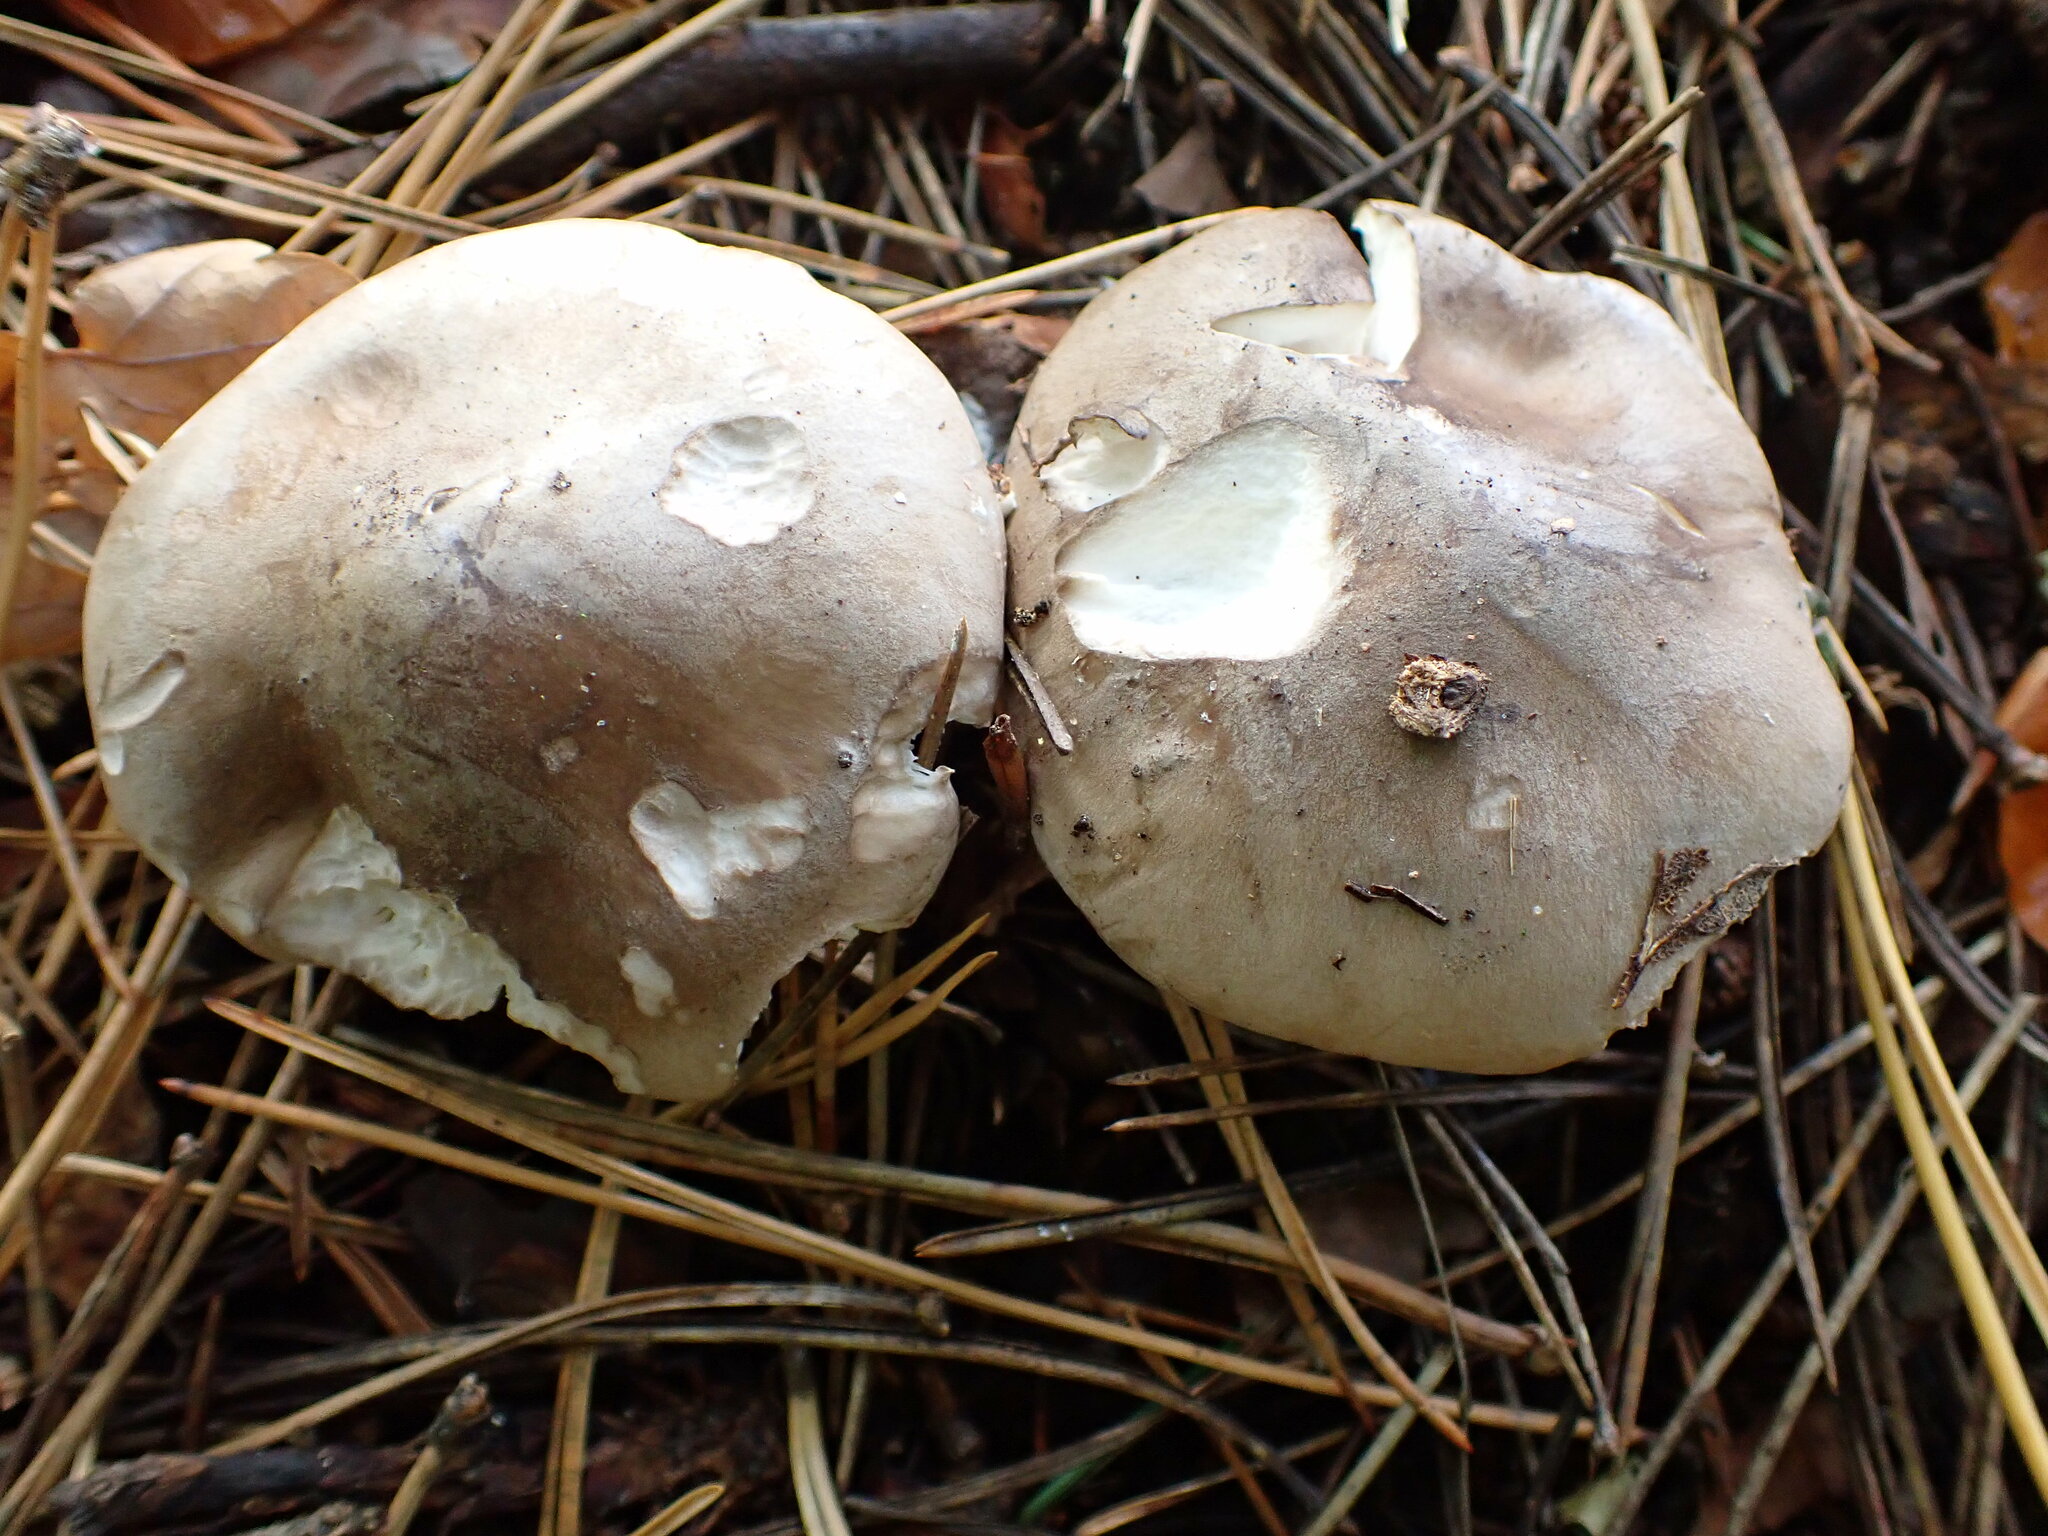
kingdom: Fungi
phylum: Basidiomycota
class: Agaricomycetes
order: Agaricales
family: Tricholomataceae
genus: Clitocybe
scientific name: Clitocybe nebularis
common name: Clouded agaric
